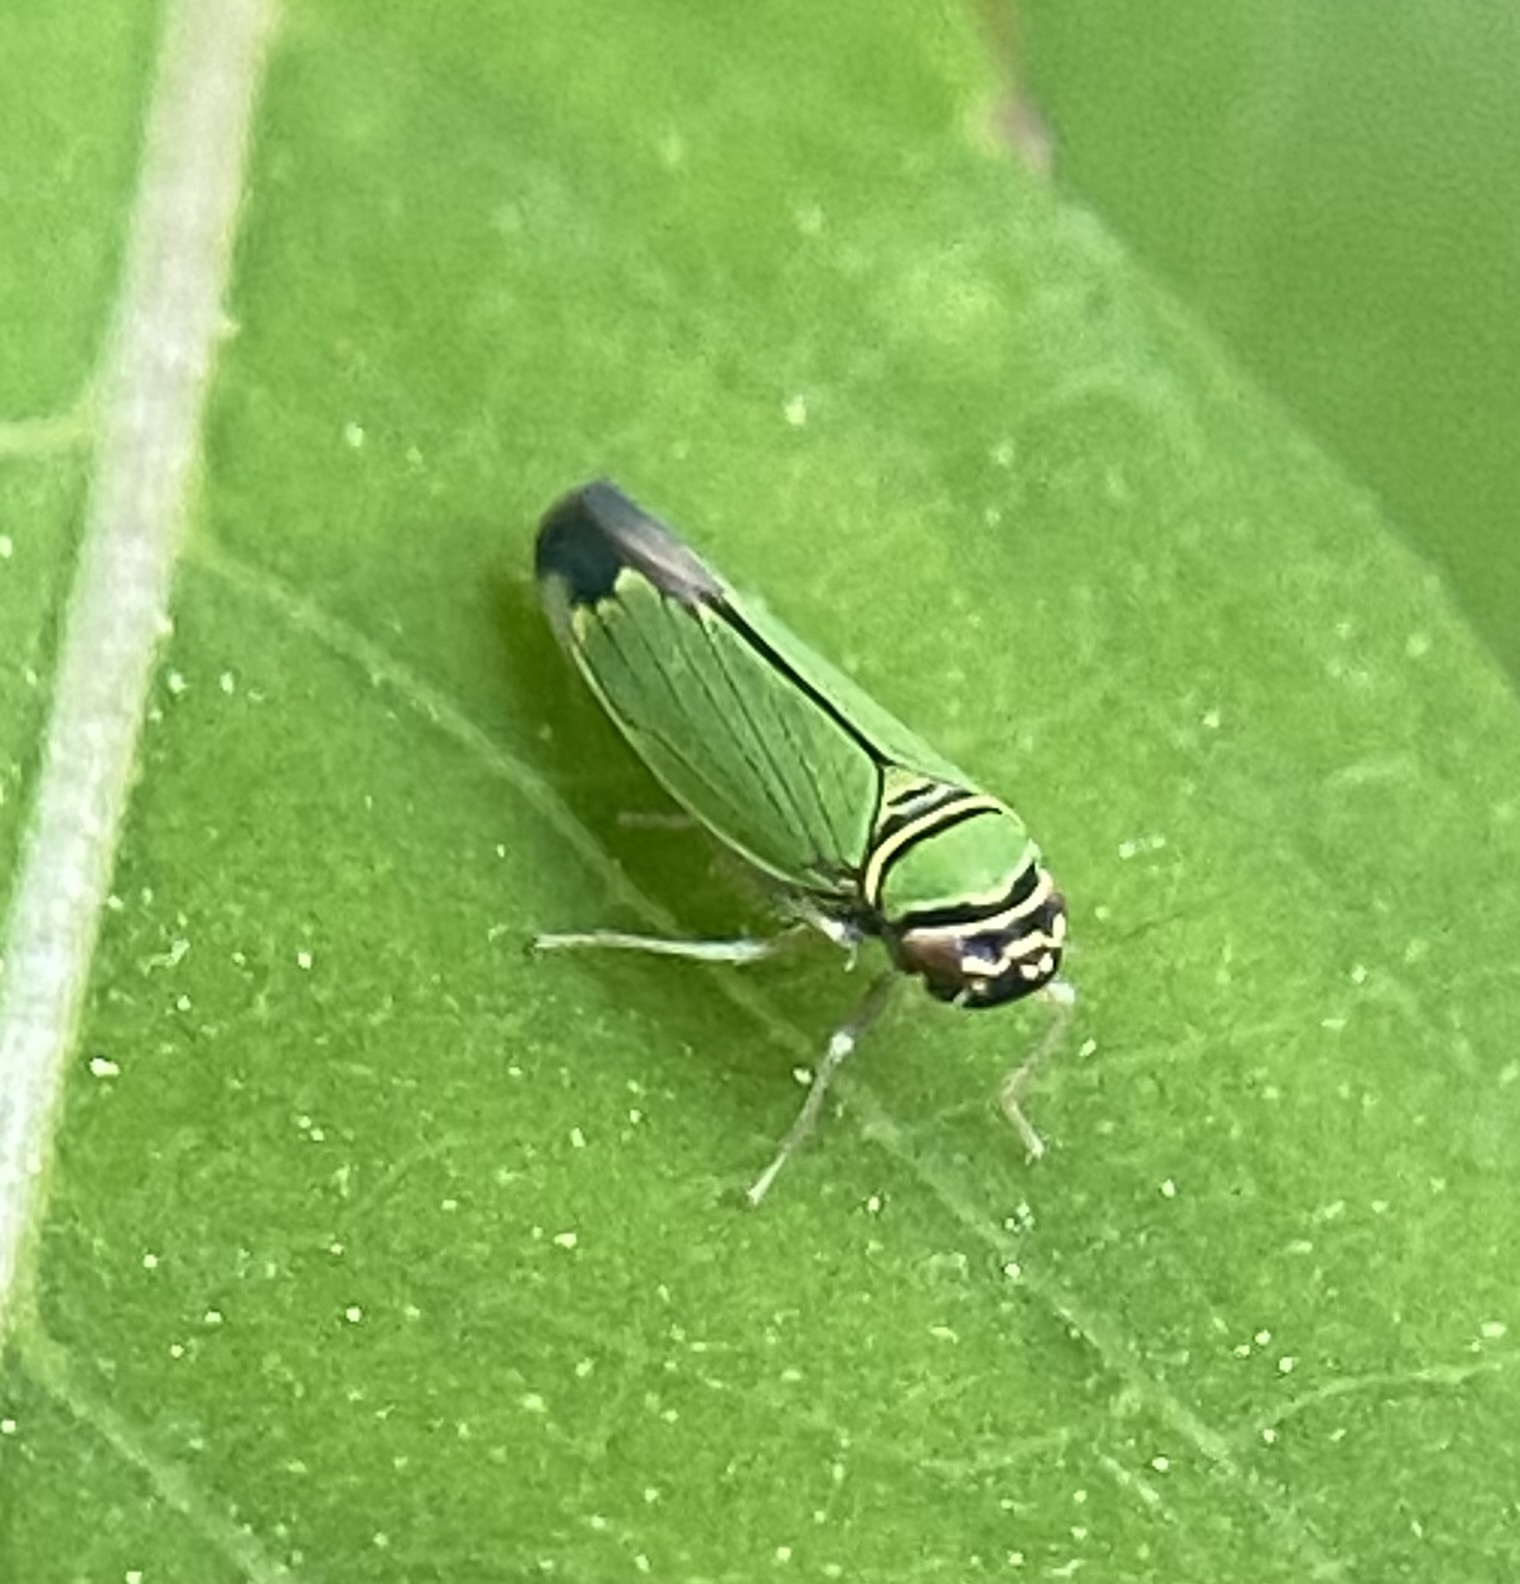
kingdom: Animalia
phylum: Arthropoda
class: Insecta
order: Hemiptera
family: Cicadellidae
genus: Tylozygus
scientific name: Tylozygus geometricus
